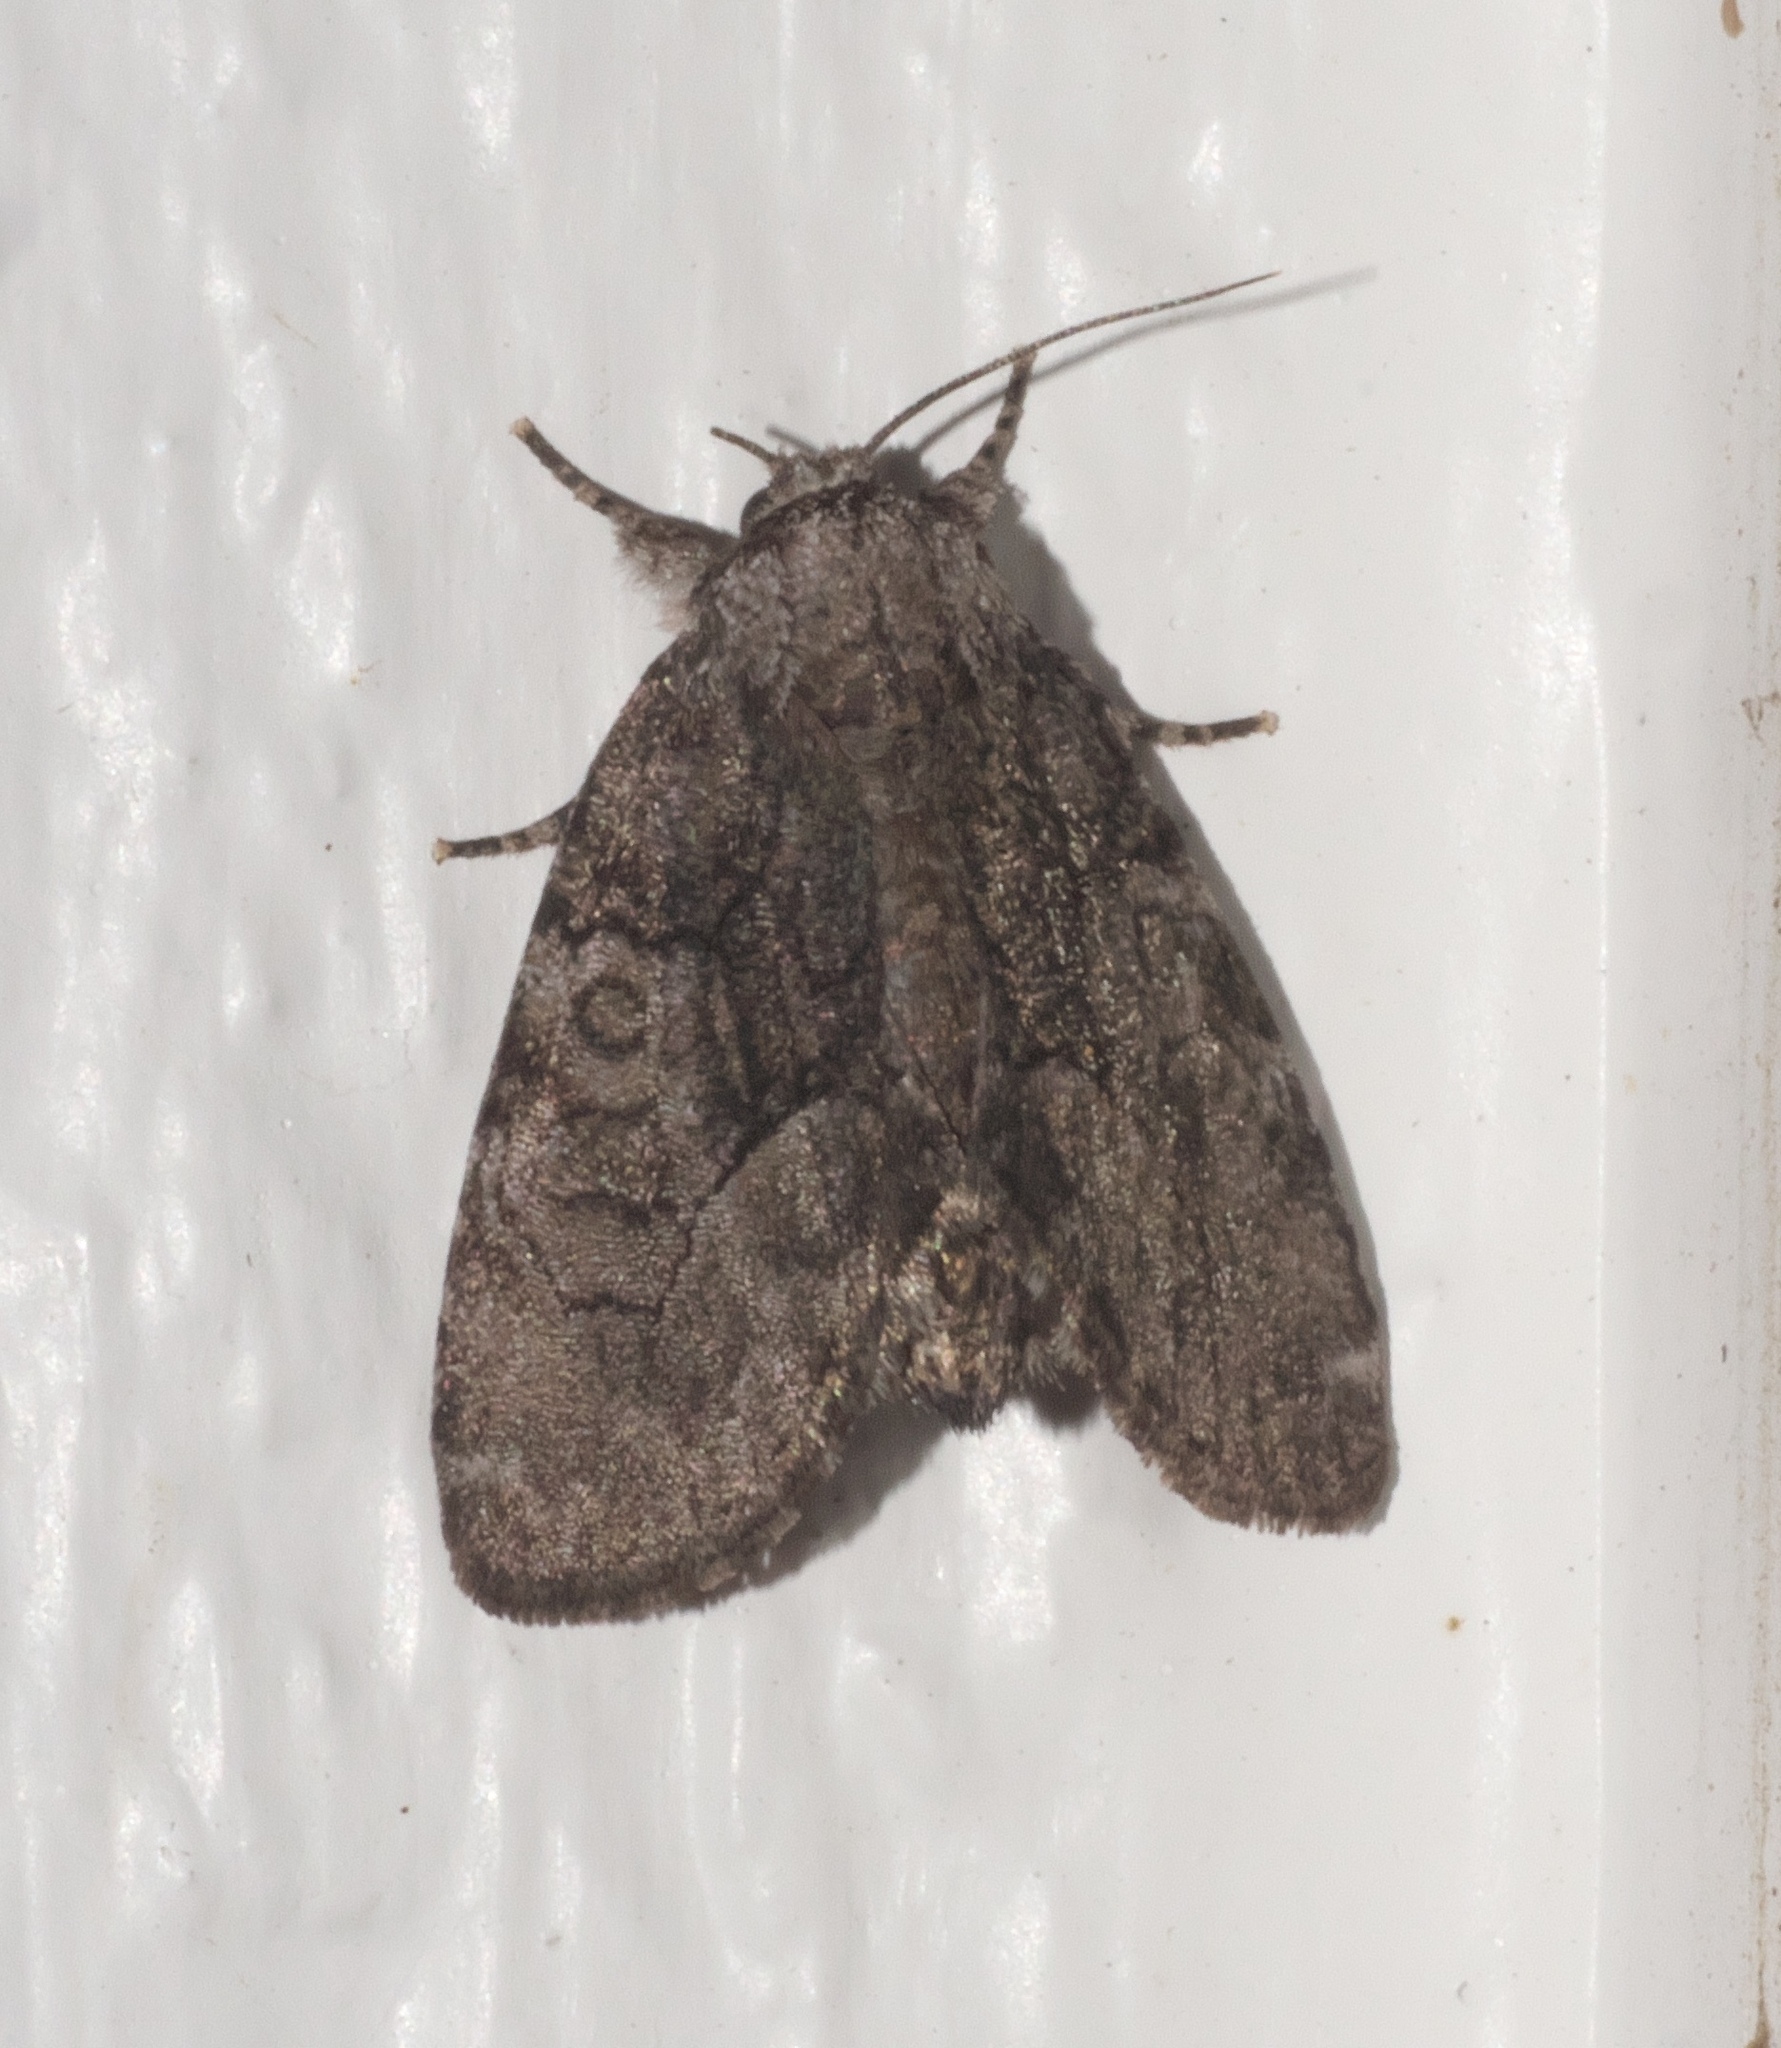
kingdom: Animalia
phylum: Arthropoda
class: Insecta
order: Lepidoptera
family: Noctuidae
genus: Raphia
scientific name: Raphia frater
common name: Brother
